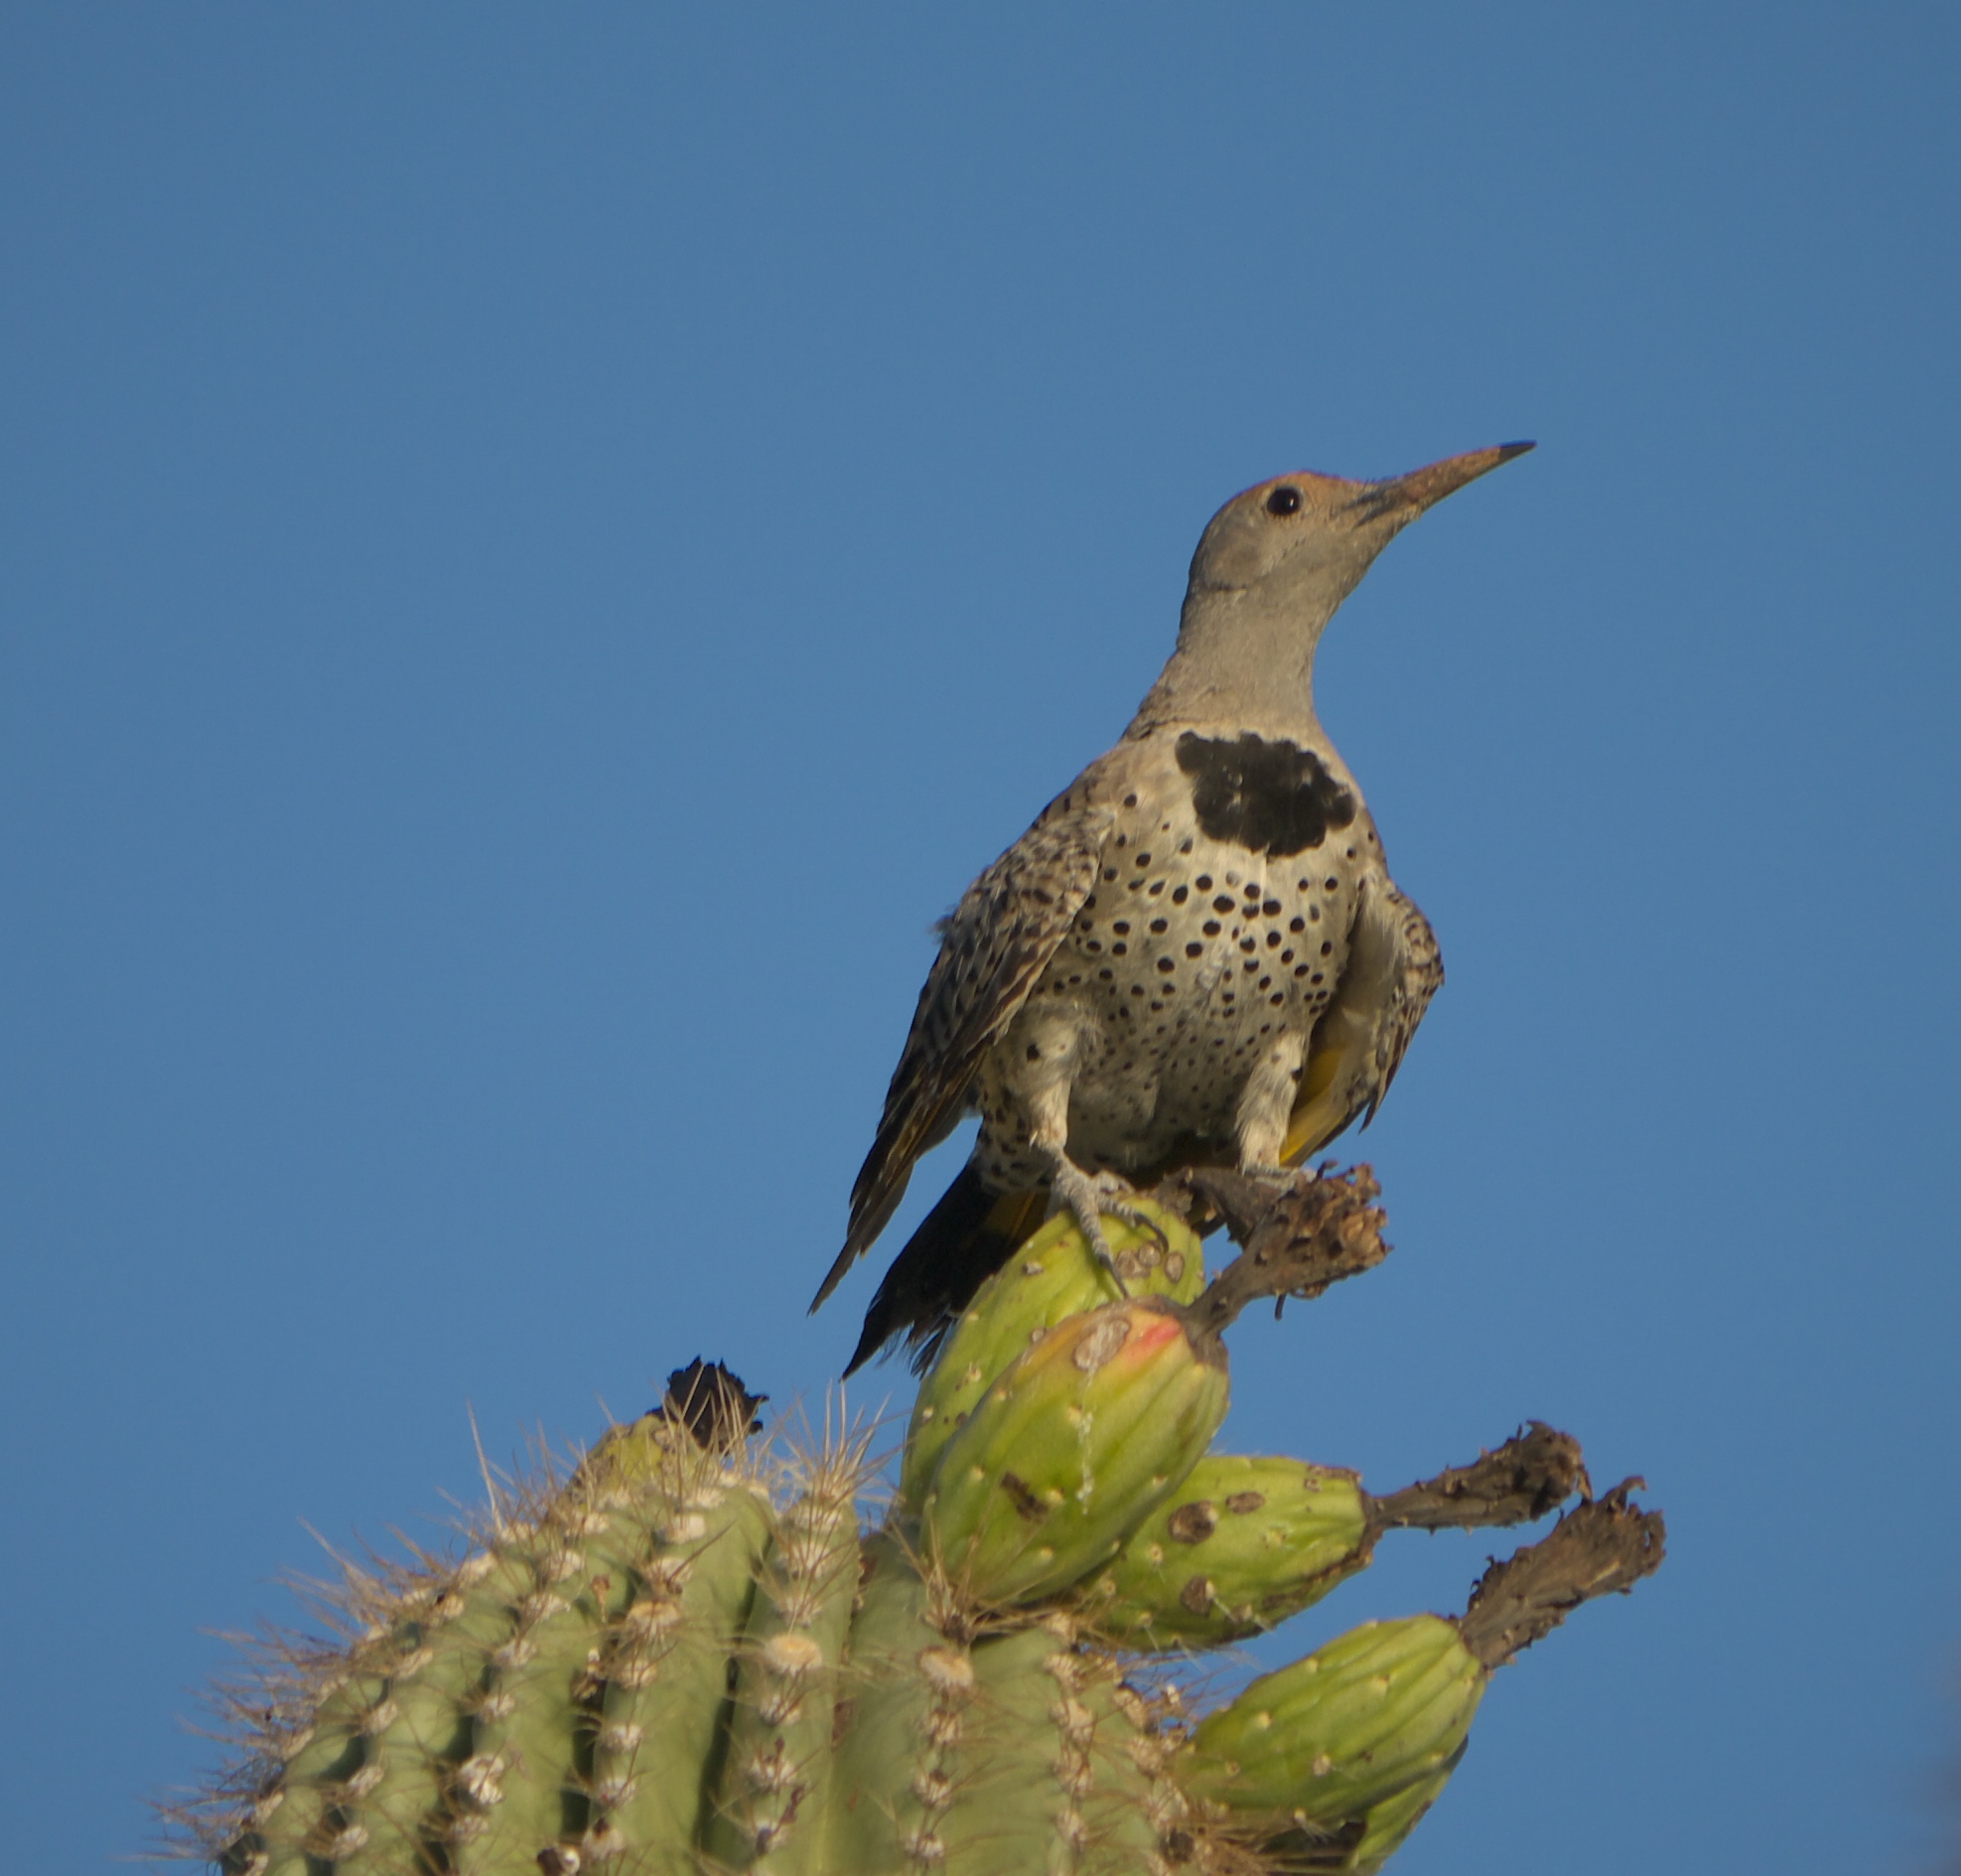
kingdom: Animalia
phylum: Chordata
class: Aves
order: Piciformes
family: Picidae
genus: Colaptes
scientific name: Colaptes chrysoides
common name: Gilded flicker
